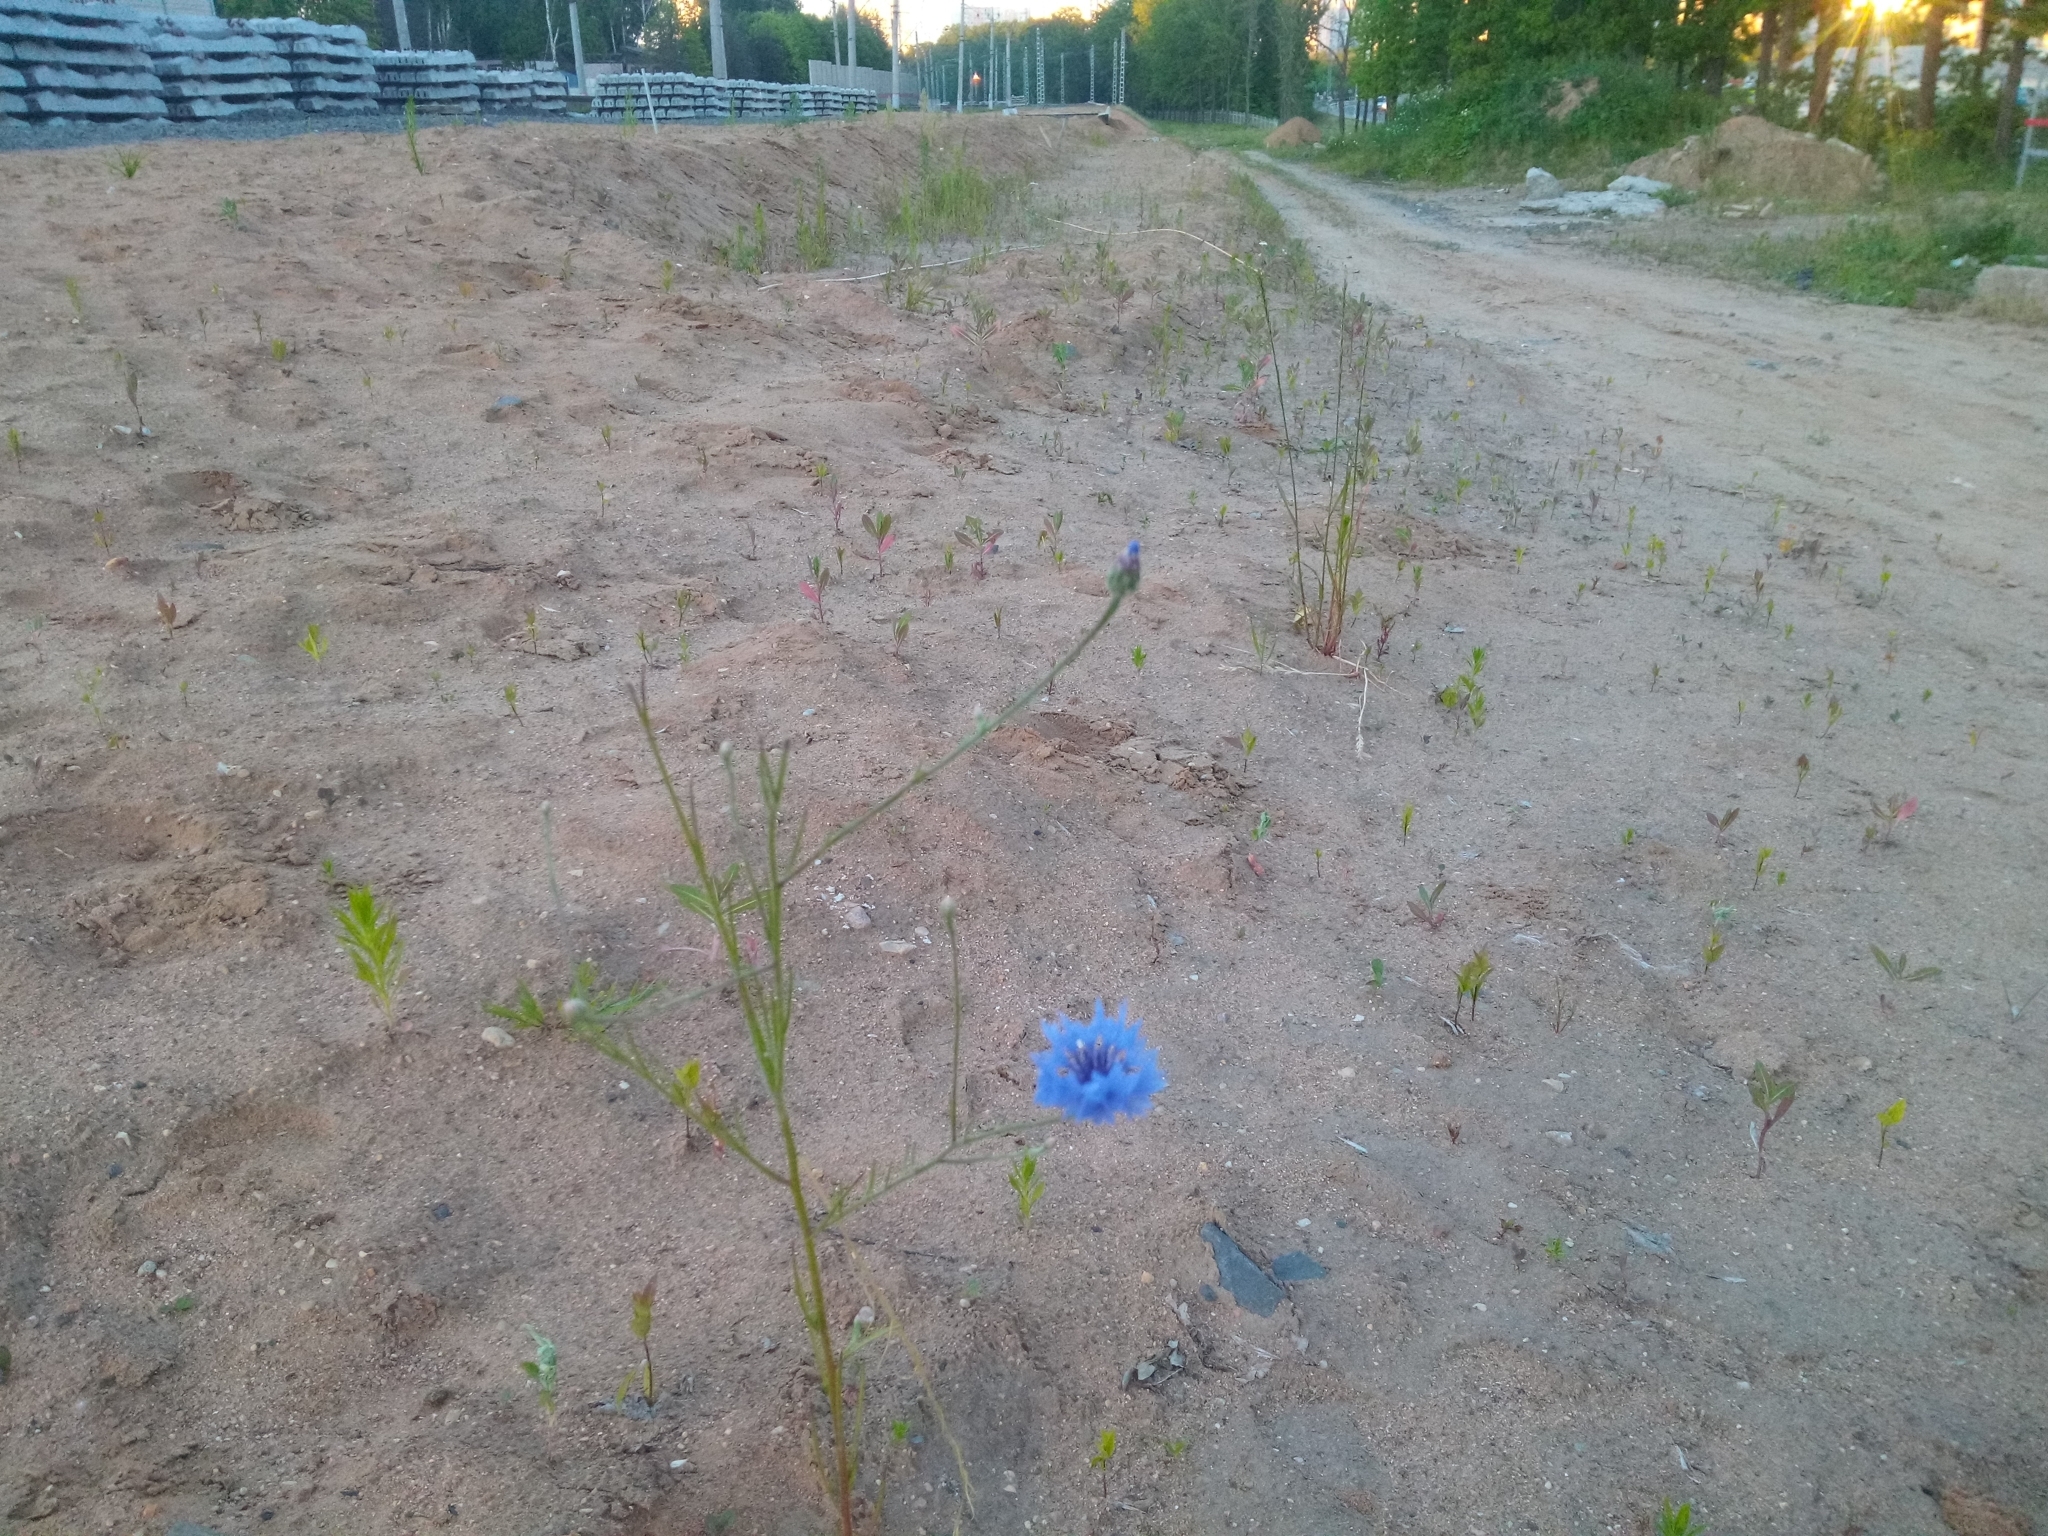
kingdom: Plantae
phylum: Tracheophyta
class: Magnoliopsida
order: Asterales
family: Asteraceae
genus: Centaurea
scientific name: Centaurea cyanus
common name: Cornflower
